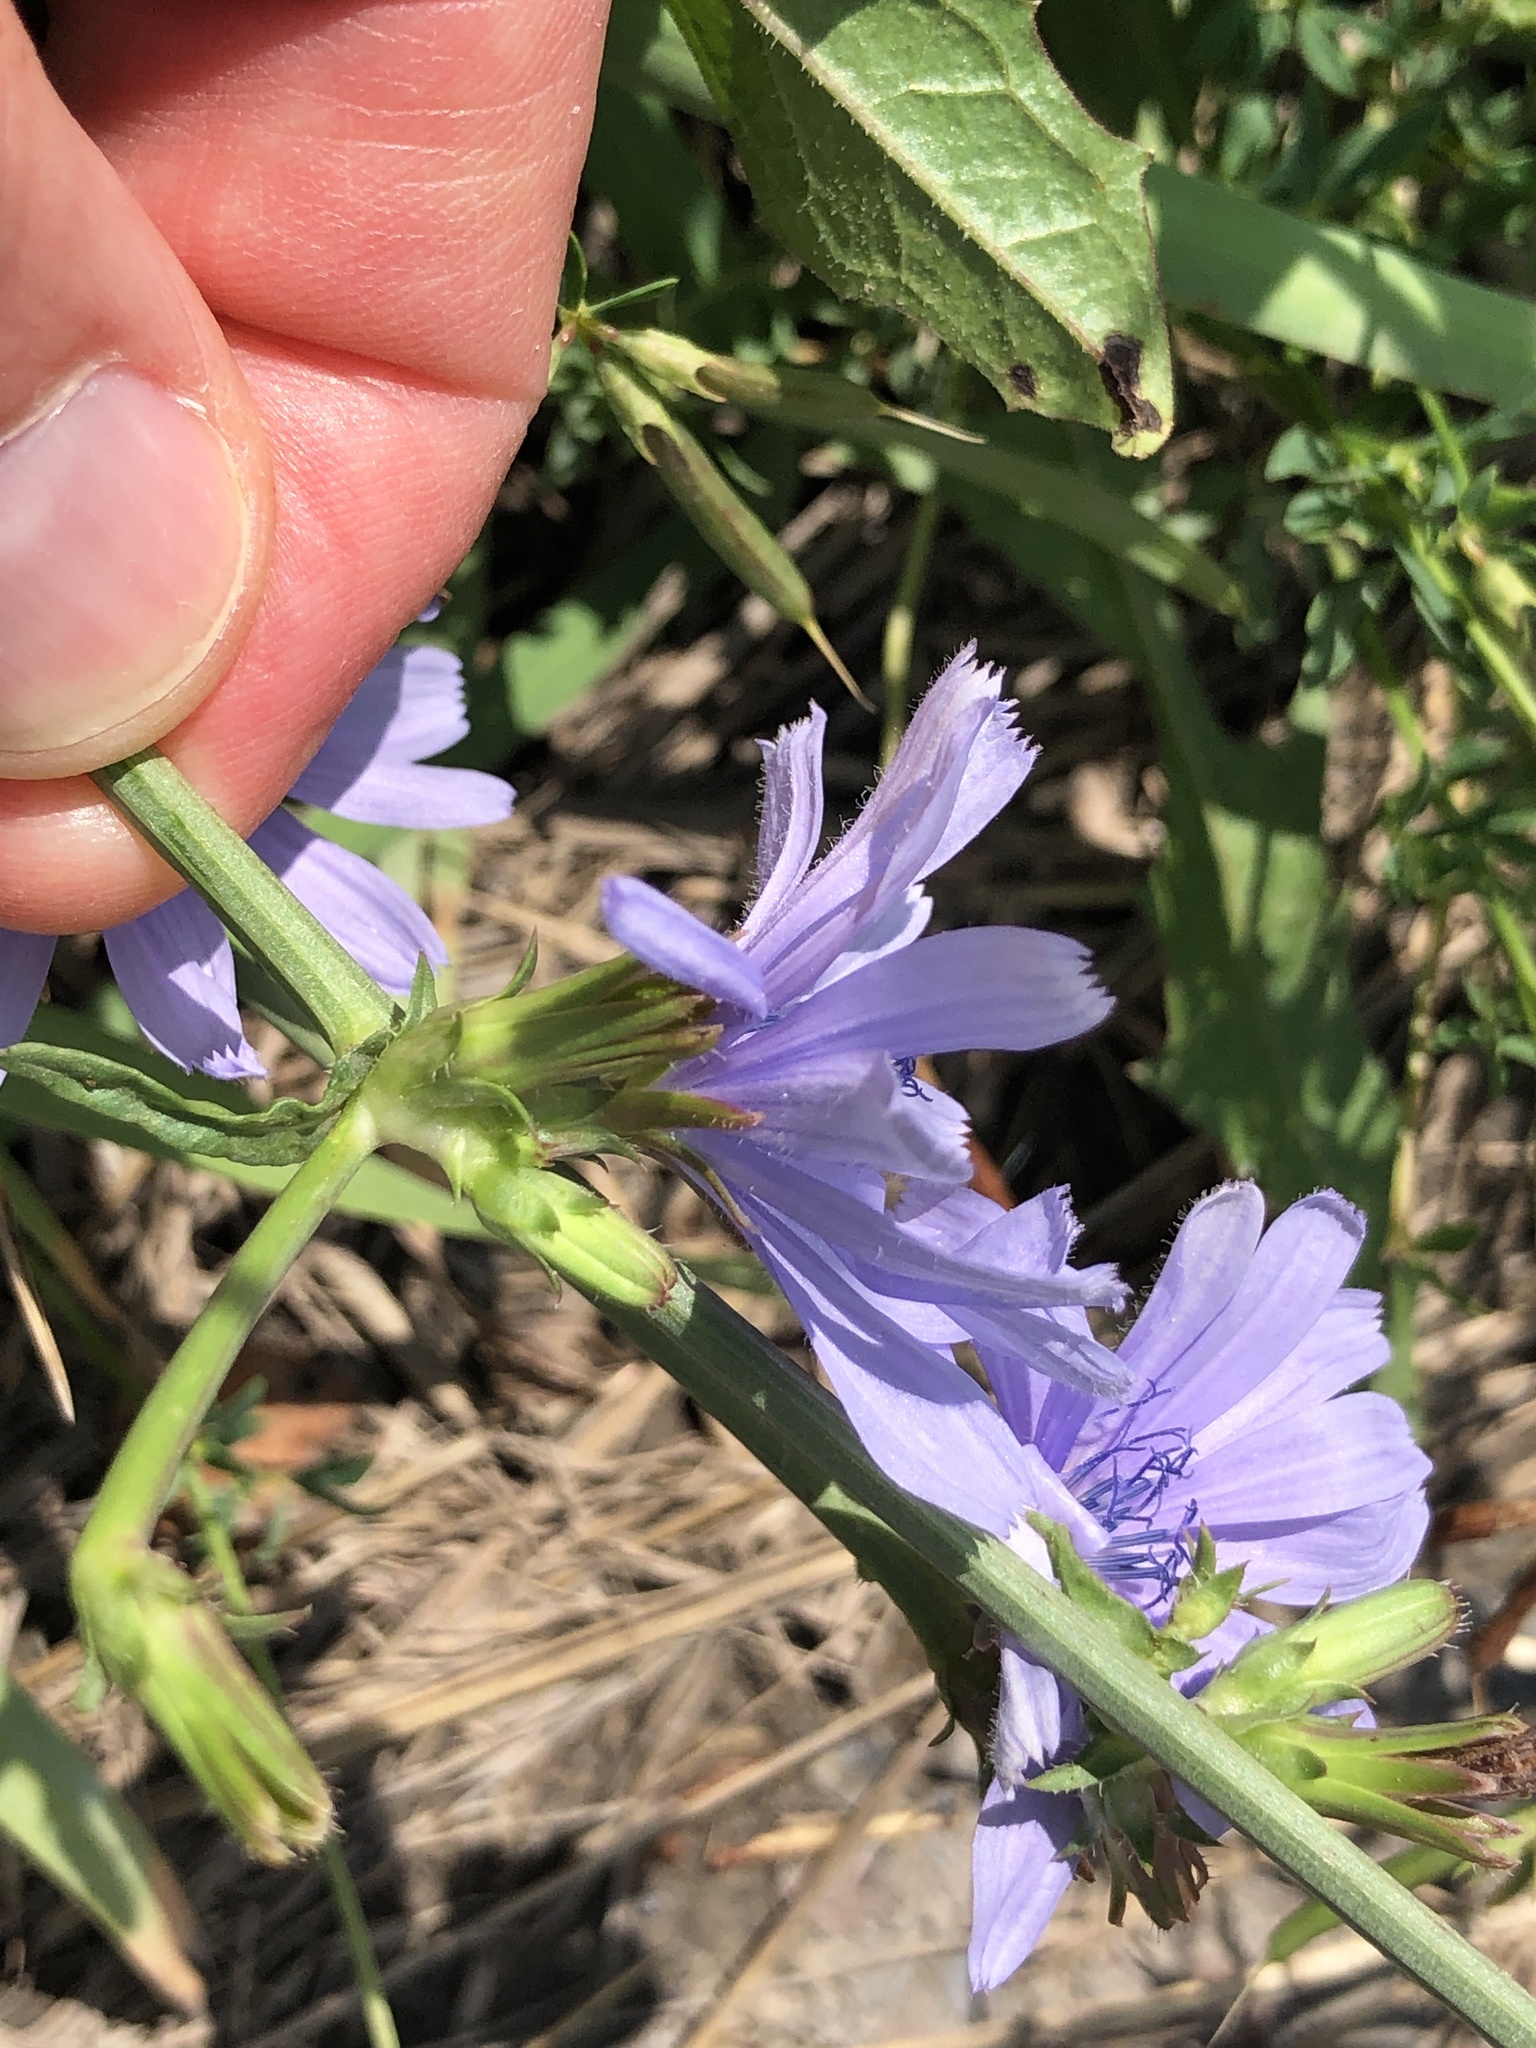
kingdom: Plantae
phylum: Tracheophyta
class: Magnoliopsida
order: Asterales
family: Asteraceae
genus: Cichorium
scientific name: Cichorium intybus
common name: Chicory
